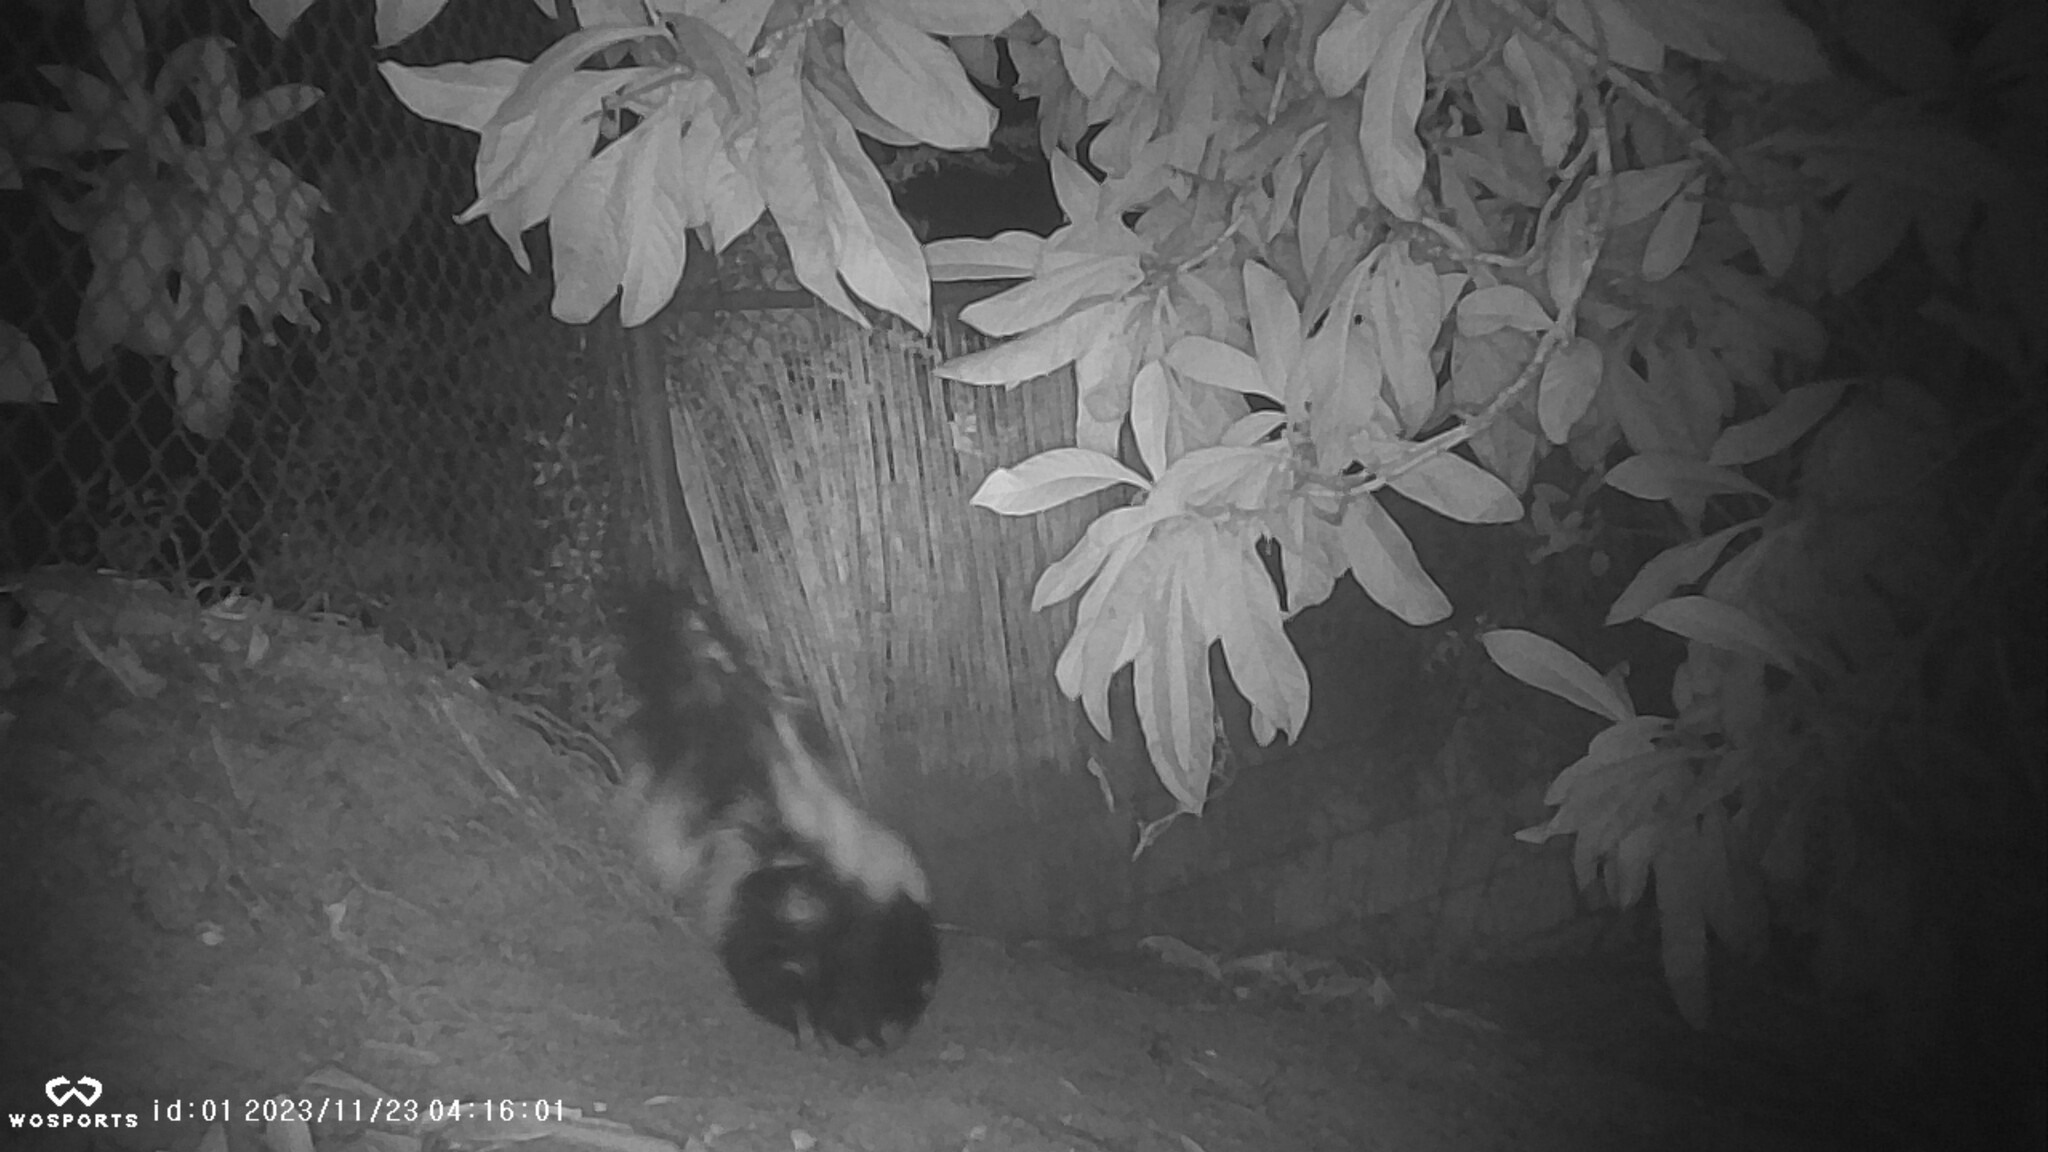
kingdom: Animalia
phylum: Chordata
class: Mammalia
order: Carnivora
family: Mephitidae
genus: Mephitis
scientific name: Mephitis mephitis
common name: Striped skunk
